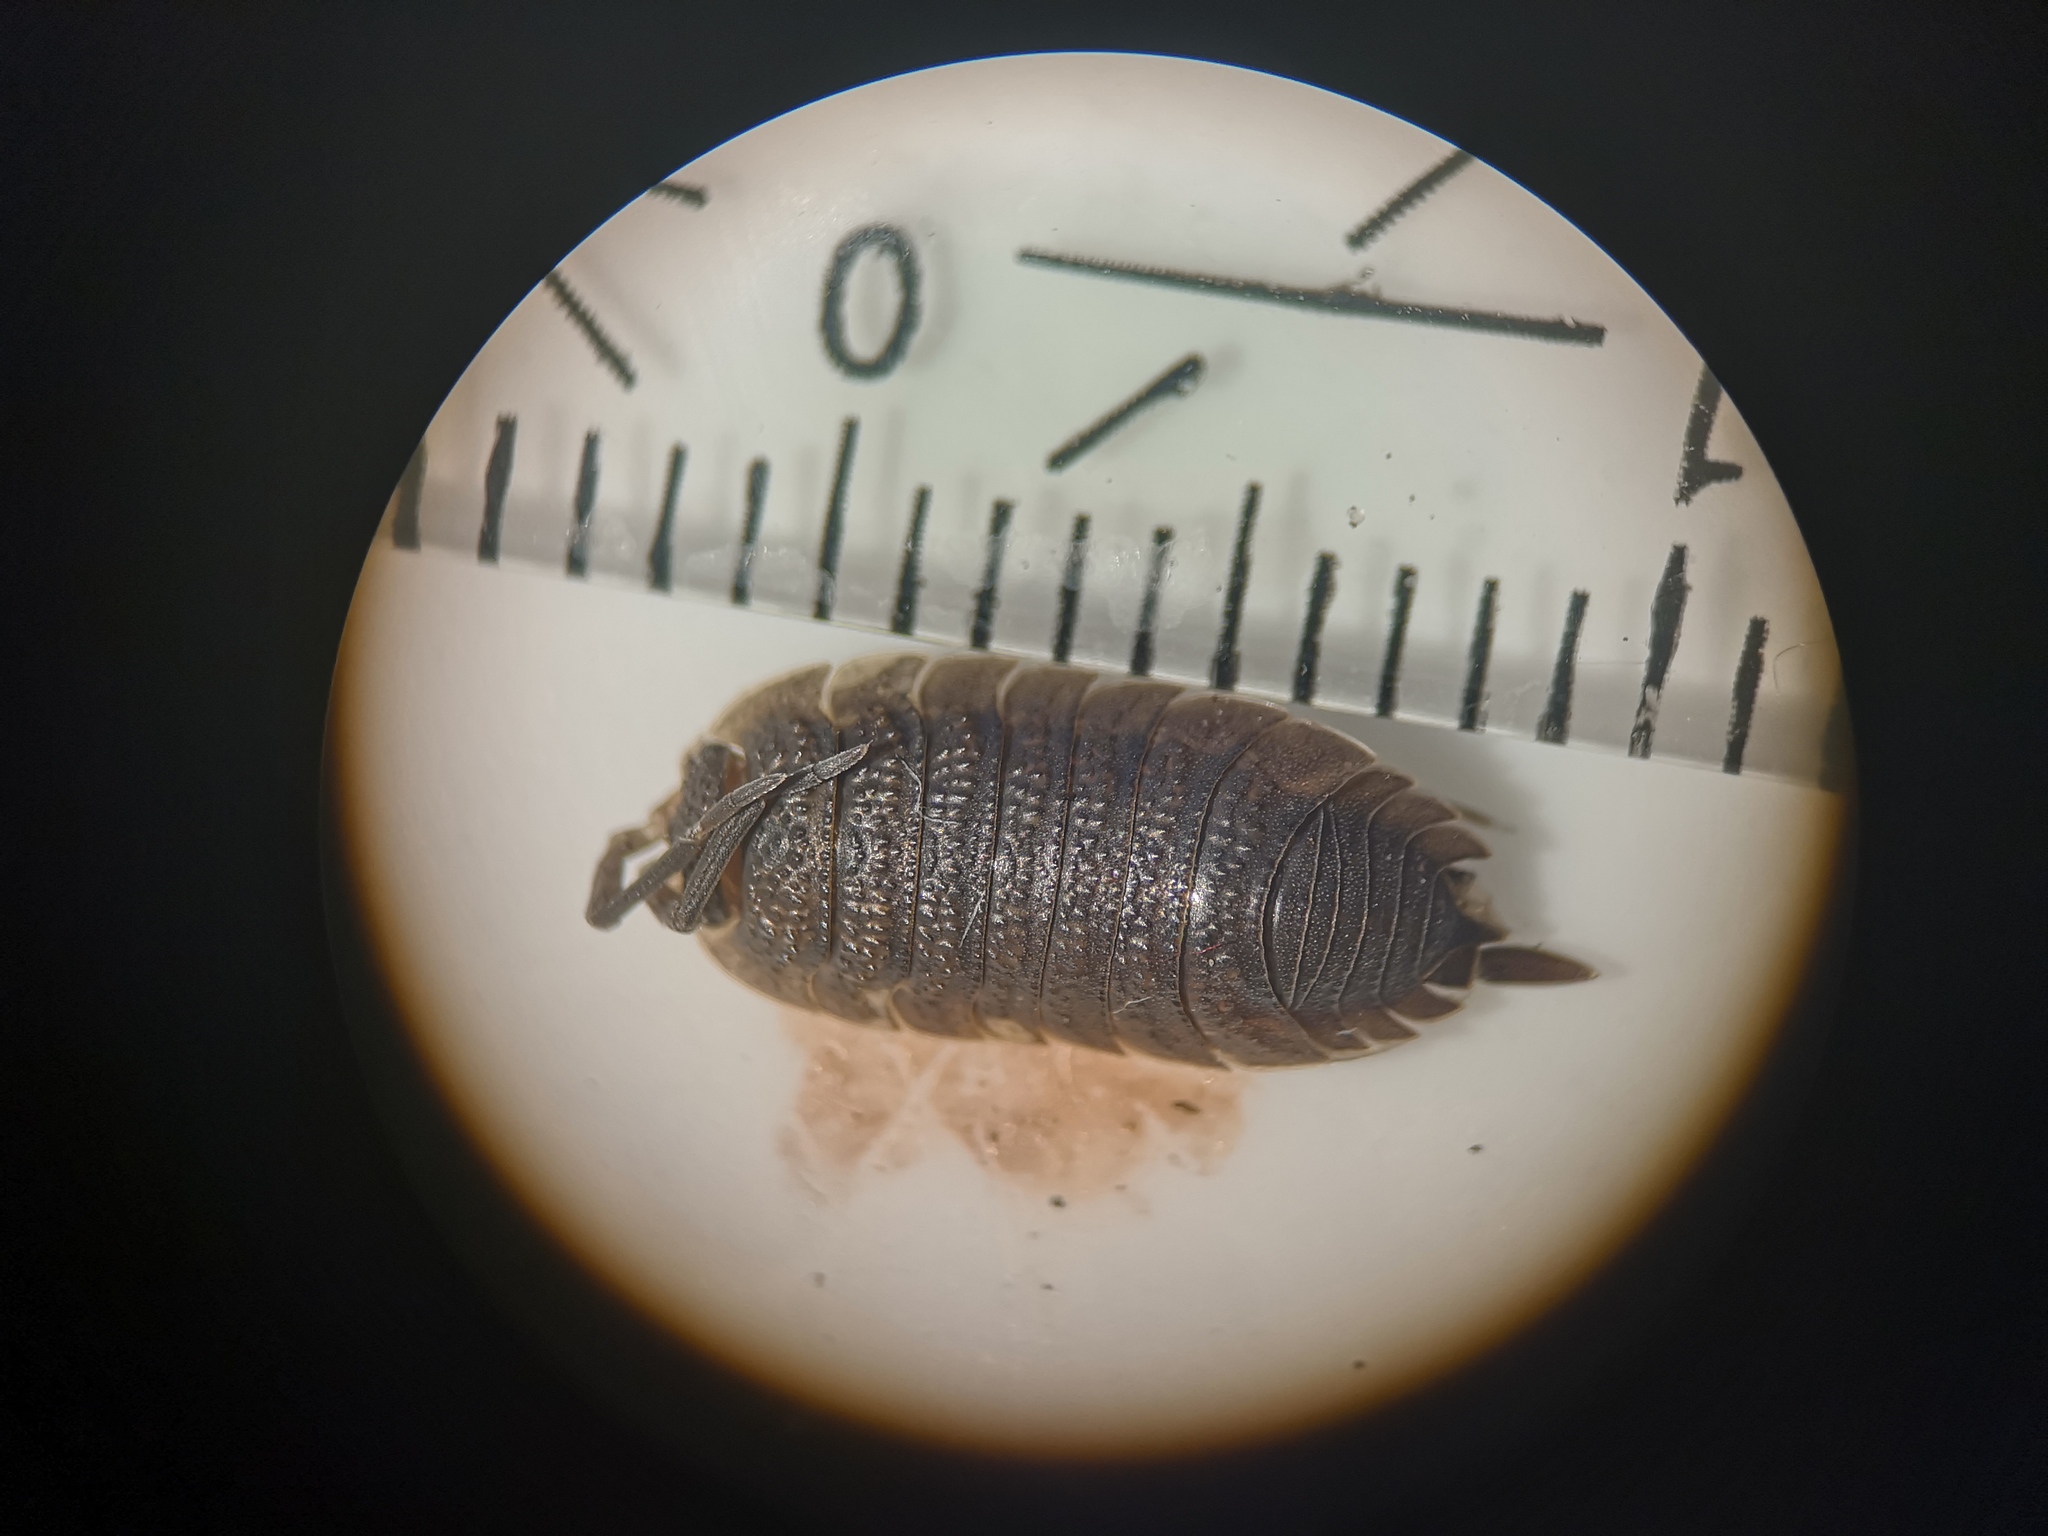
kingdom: Animalia
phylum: Arthropoda
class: Malacostraca
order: Isopoda
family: Porcellionidae
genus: Porcellio
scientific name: Porcellio scaber
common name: Common rough woodlouse
